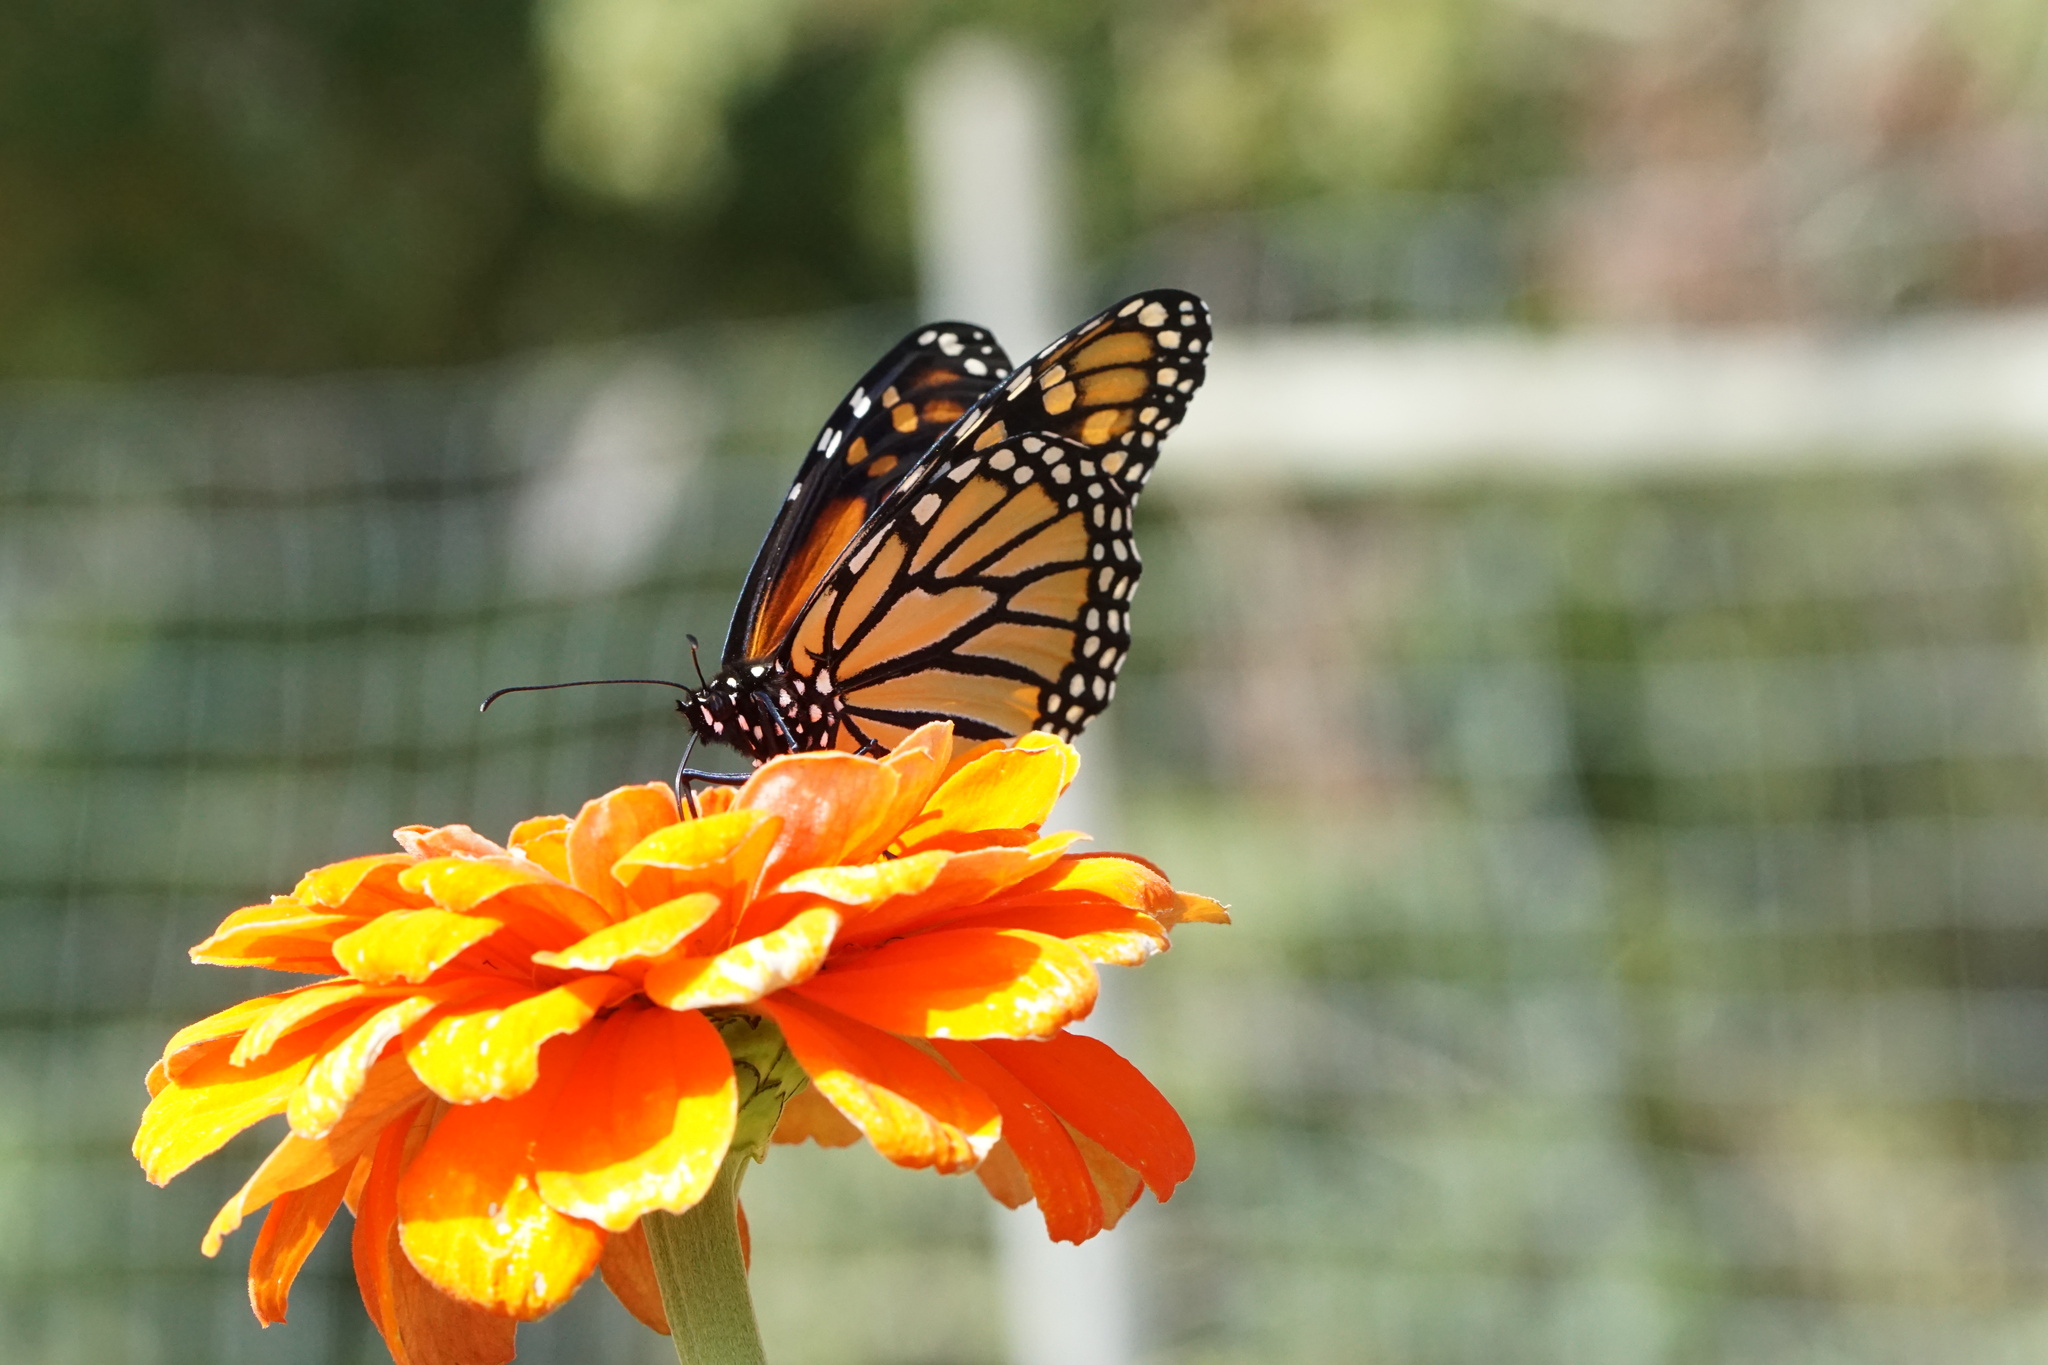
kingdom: Animalia
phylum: Arthropoda
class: Insecta
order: Lepidoptera
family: Nymphalidae
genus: Danaus
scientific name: Danaus plexippus
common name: Monarch
